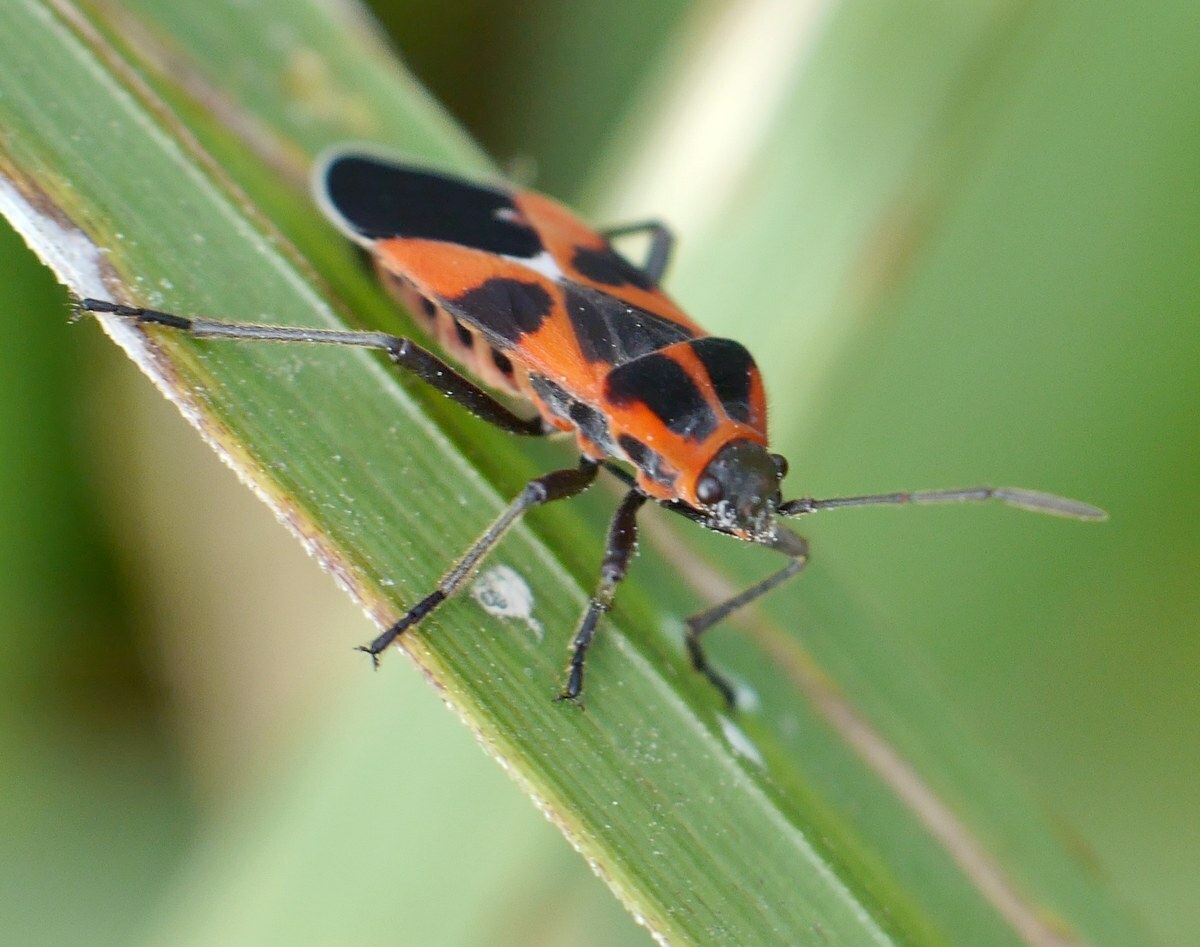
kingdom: Animalia
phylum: Arthropoda
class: Insecta
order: Hemiptera
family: Lygaeidae
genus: Tropidothorax
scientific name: Tropidothorax leucopterus
